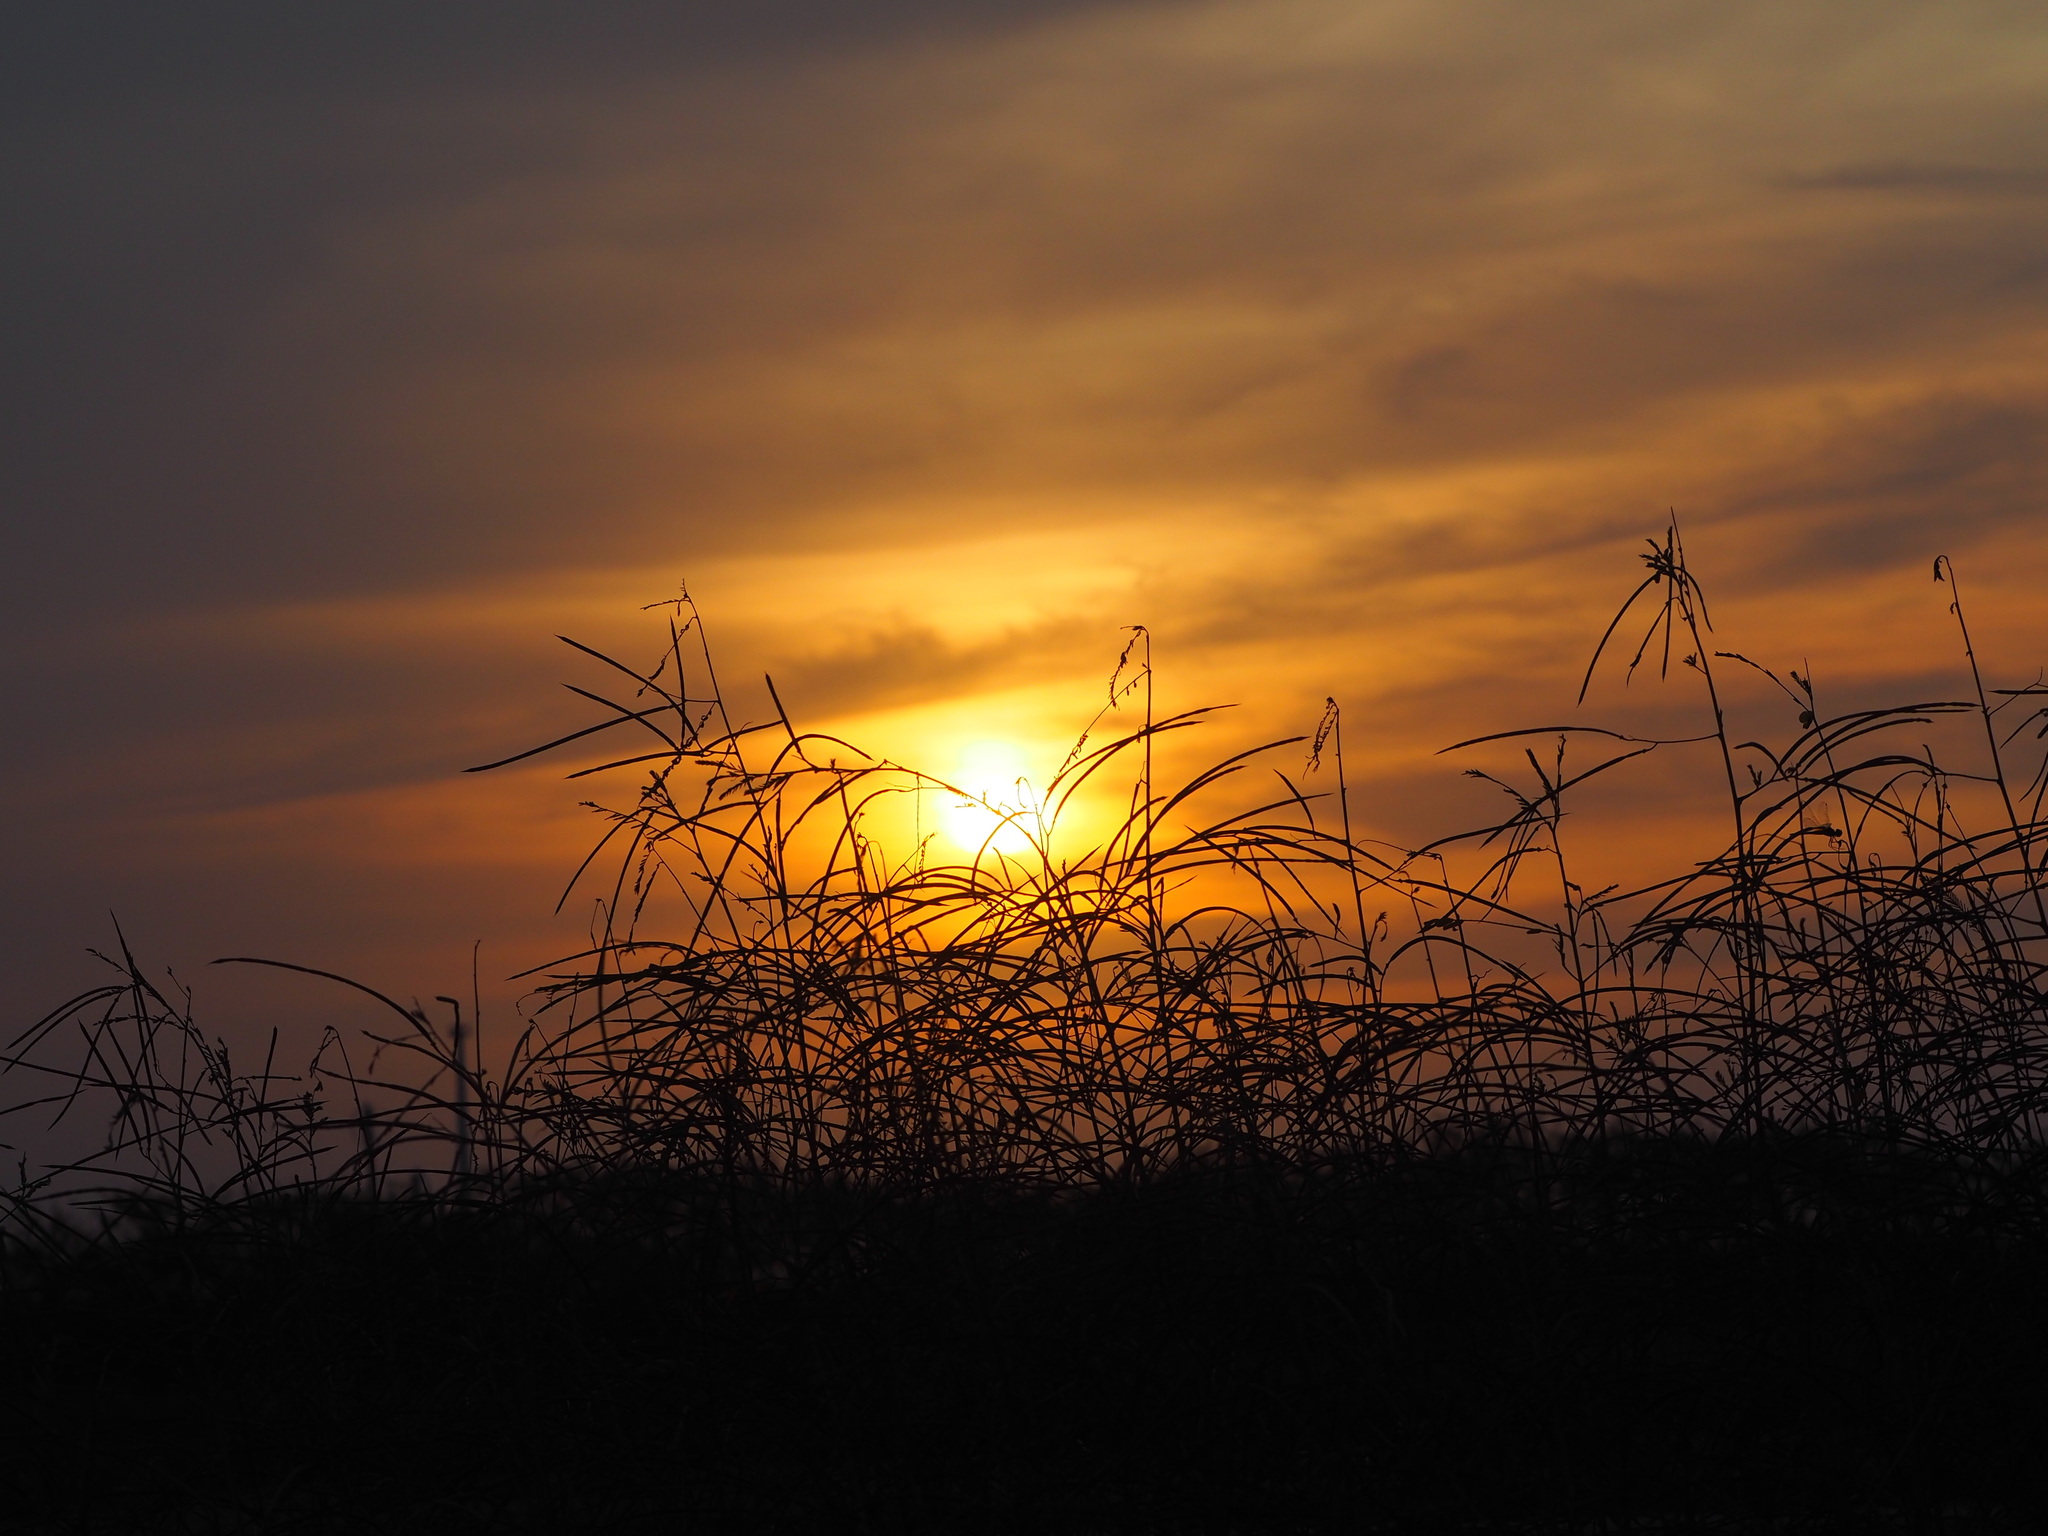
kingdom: Plantae
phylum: Tracheophyta
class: Magnoliopsida
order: Fabales
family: Fabaceae
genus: Sesbania
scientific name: Sesbania cannabina
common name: Canicha
